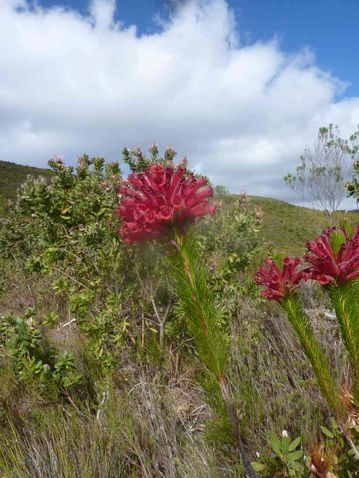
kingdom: Plantae
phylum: Tracheophyta
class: Magnoliopsida
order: Ericales
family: Ericaceae
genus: Erica
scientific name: Erica vestita
